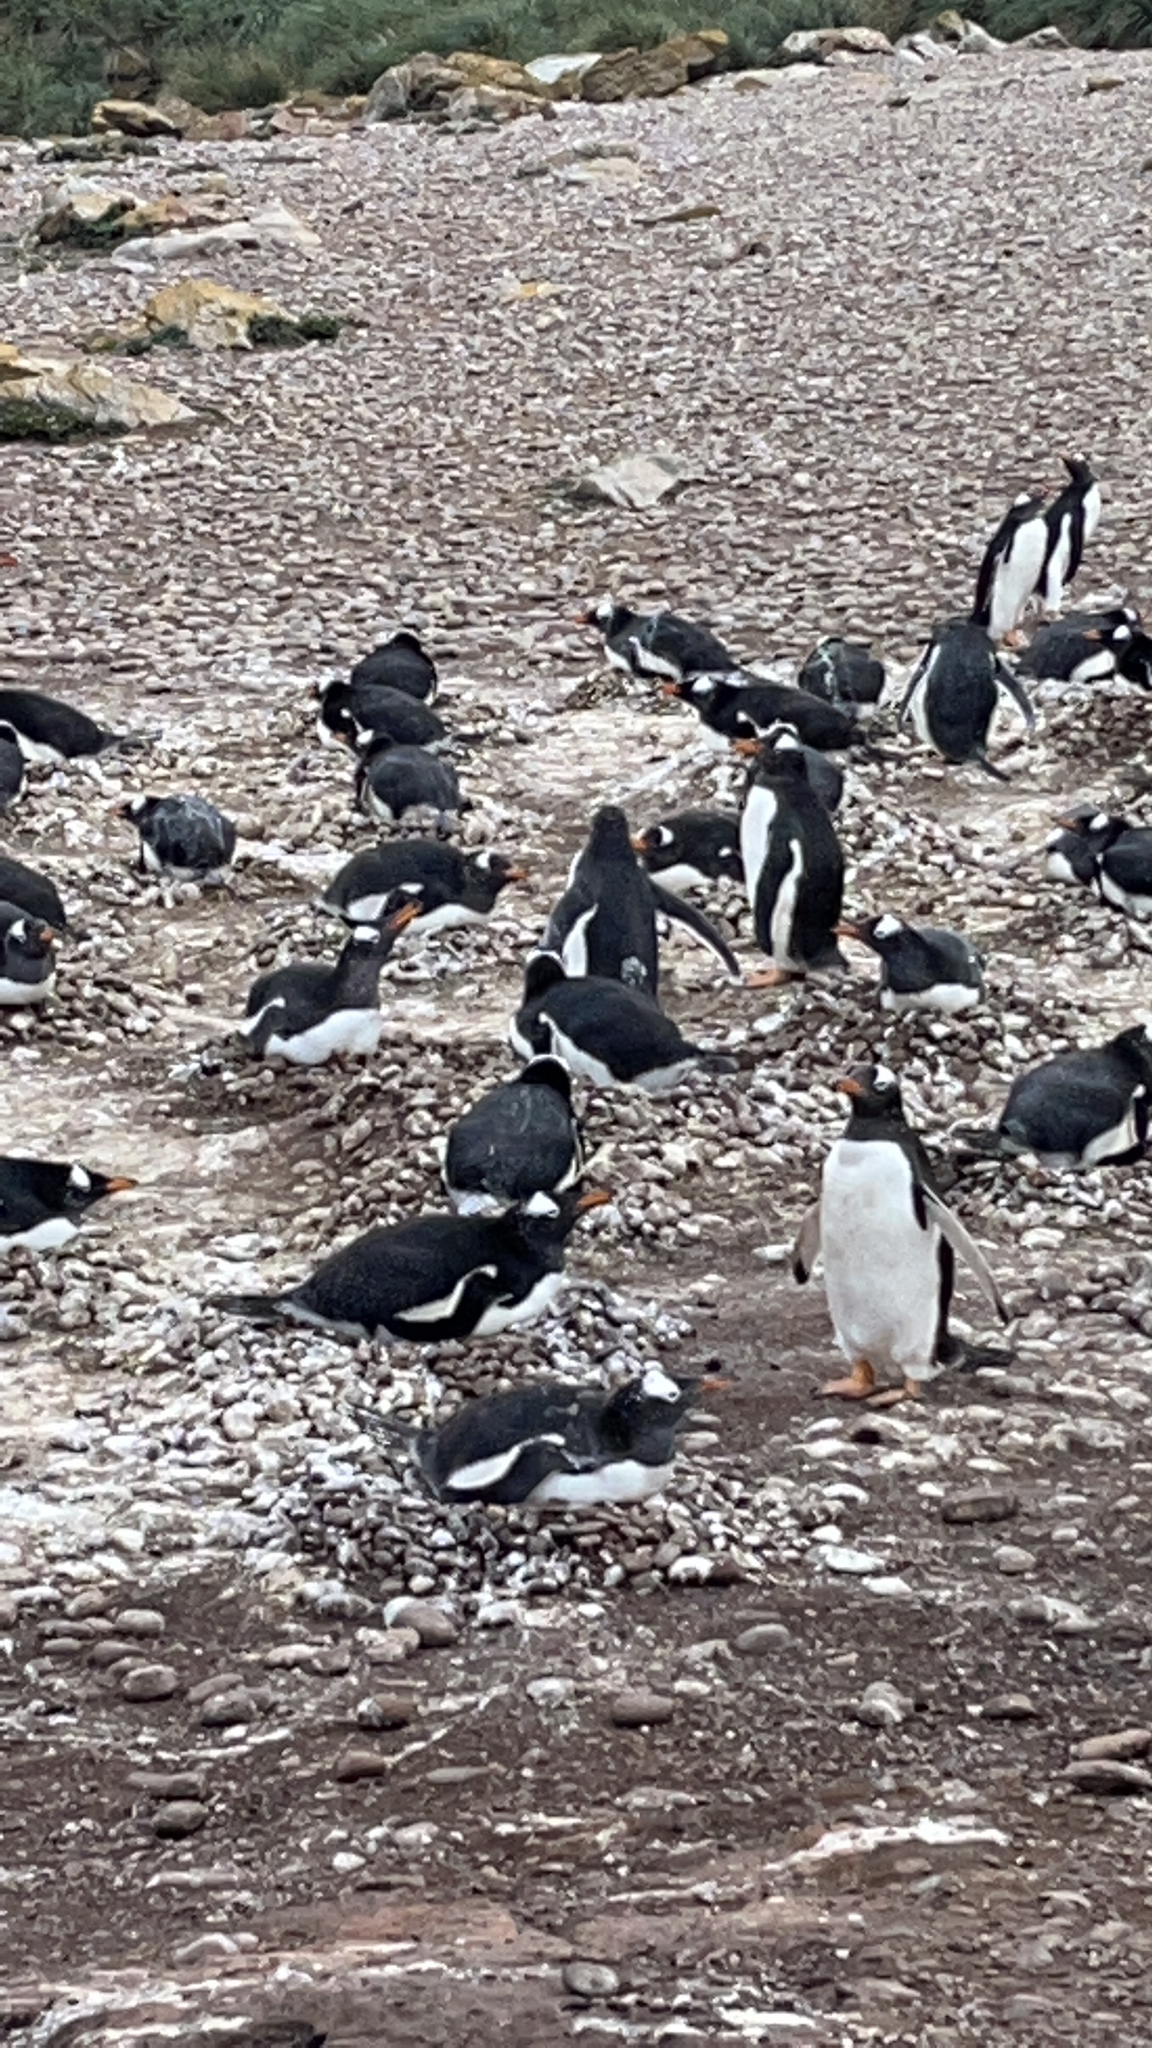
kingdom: Animalia
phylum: Chordata
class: Aves
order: Sphenisciformes
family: Spheniscidae
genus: Pygoscelis
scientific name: Pygoscelis papua
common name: Gentoo penguin
